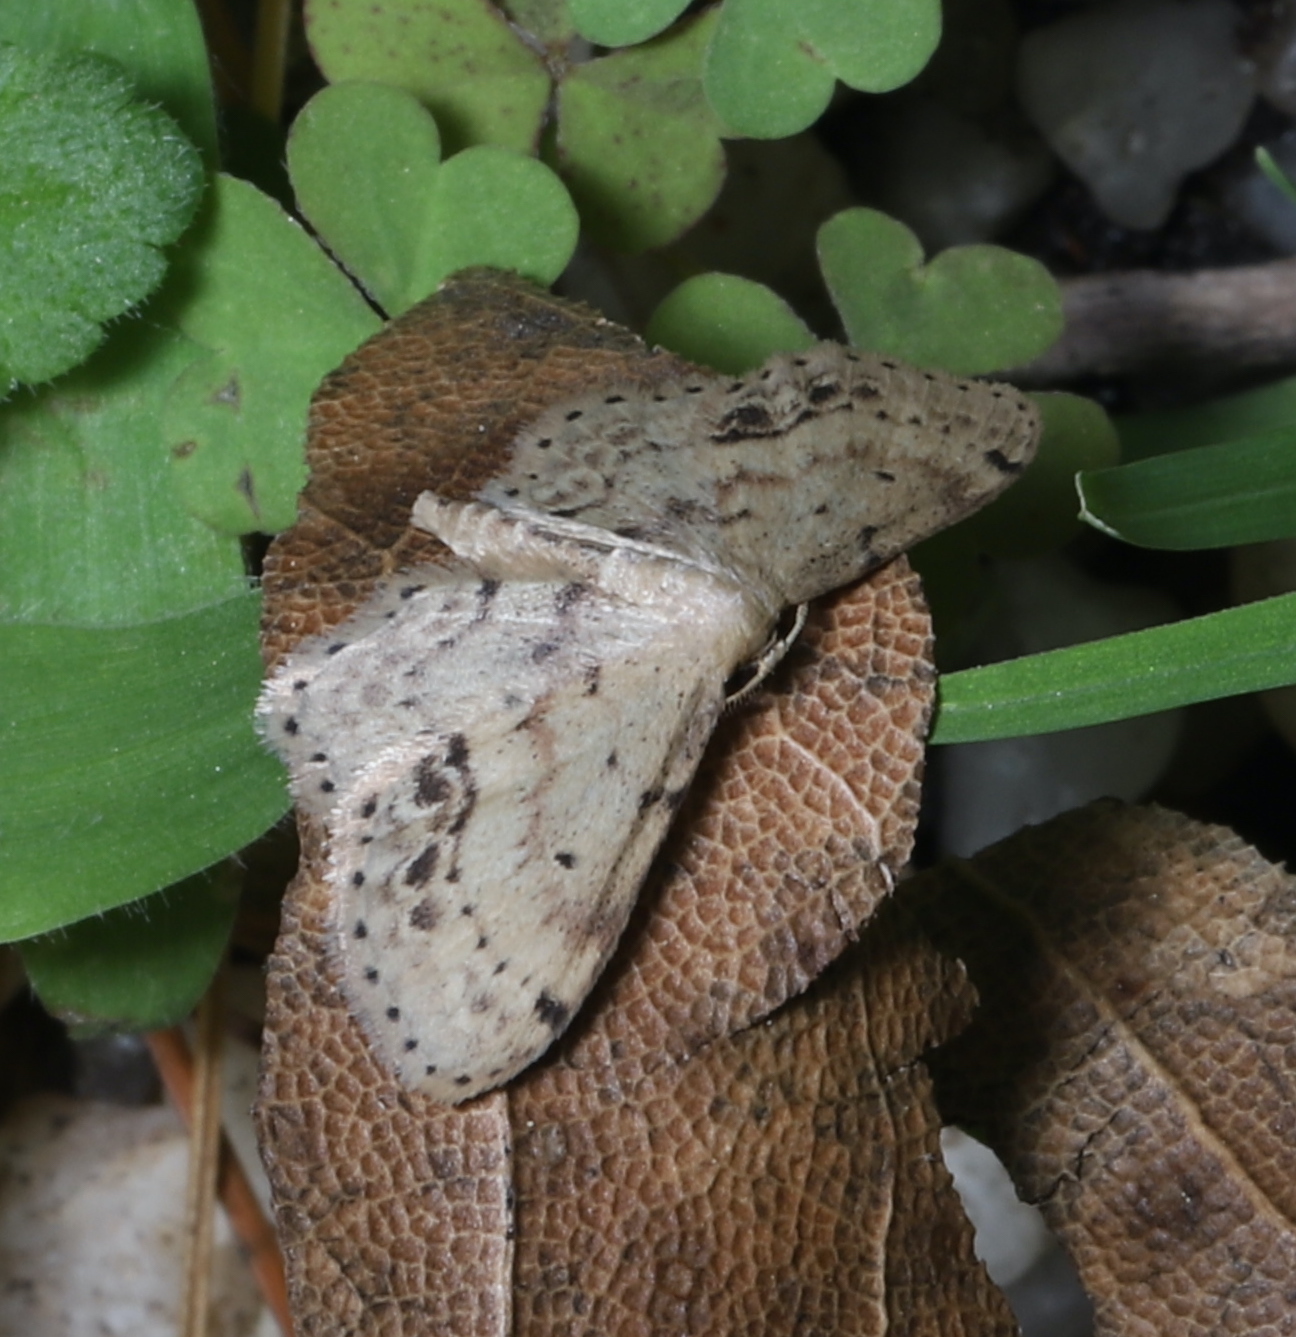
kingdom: Animalia
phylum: Arthropoda
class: Insecta
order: Lepidoptera
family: Geometridae
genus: Idaea
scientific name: Idaea dimidiata
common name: Single-dotted wave
